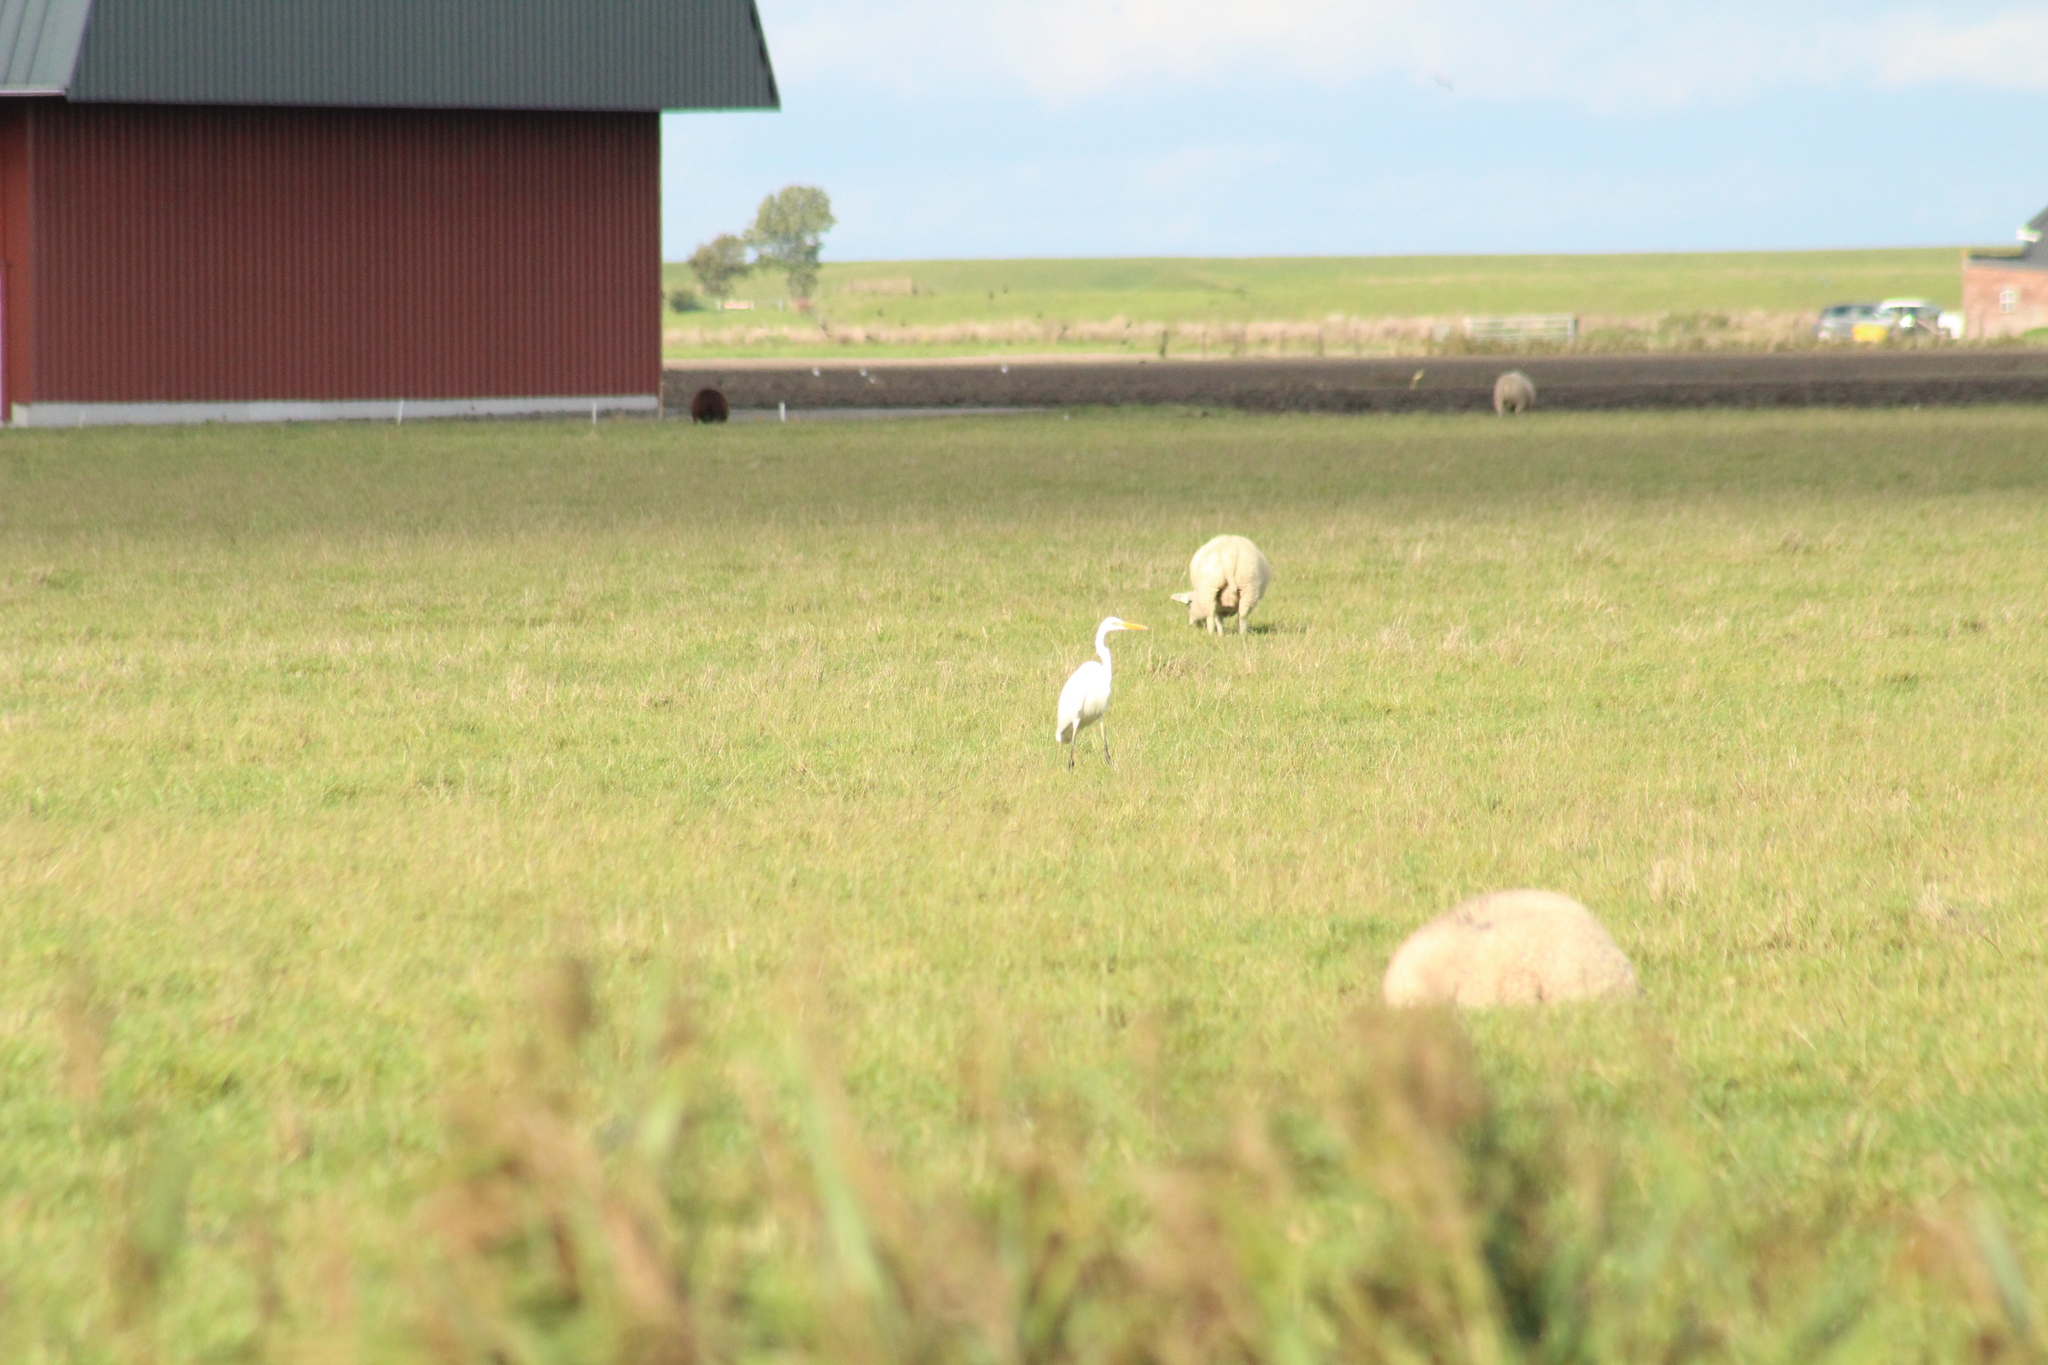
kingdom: Animalia
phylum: Chordata
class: Aves
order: Pelecaniformes
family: Ardeidae
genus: Ardea
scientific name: Ardea alba
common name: Great egret
